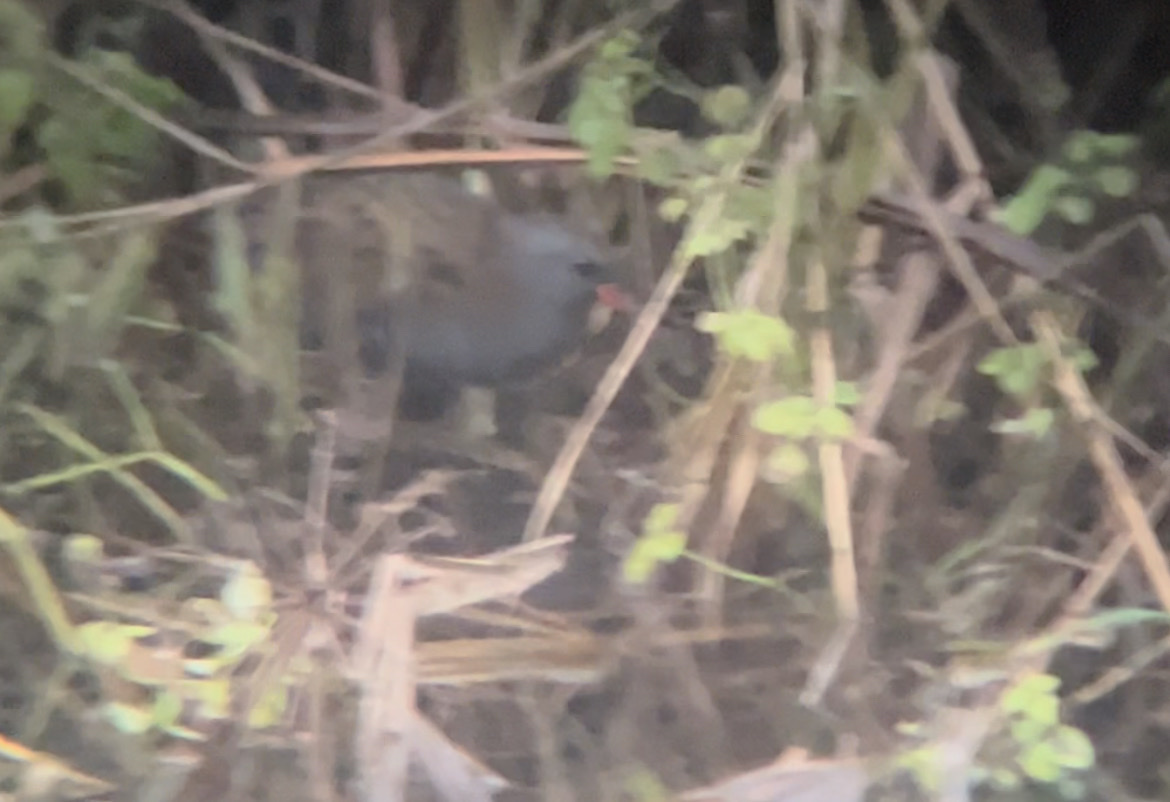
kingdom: Animalia
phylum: Chordata
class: Aves
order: Gruiformes
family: Rallidae
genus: Rallus
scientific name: Rallus aquaticus
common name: Water rail
